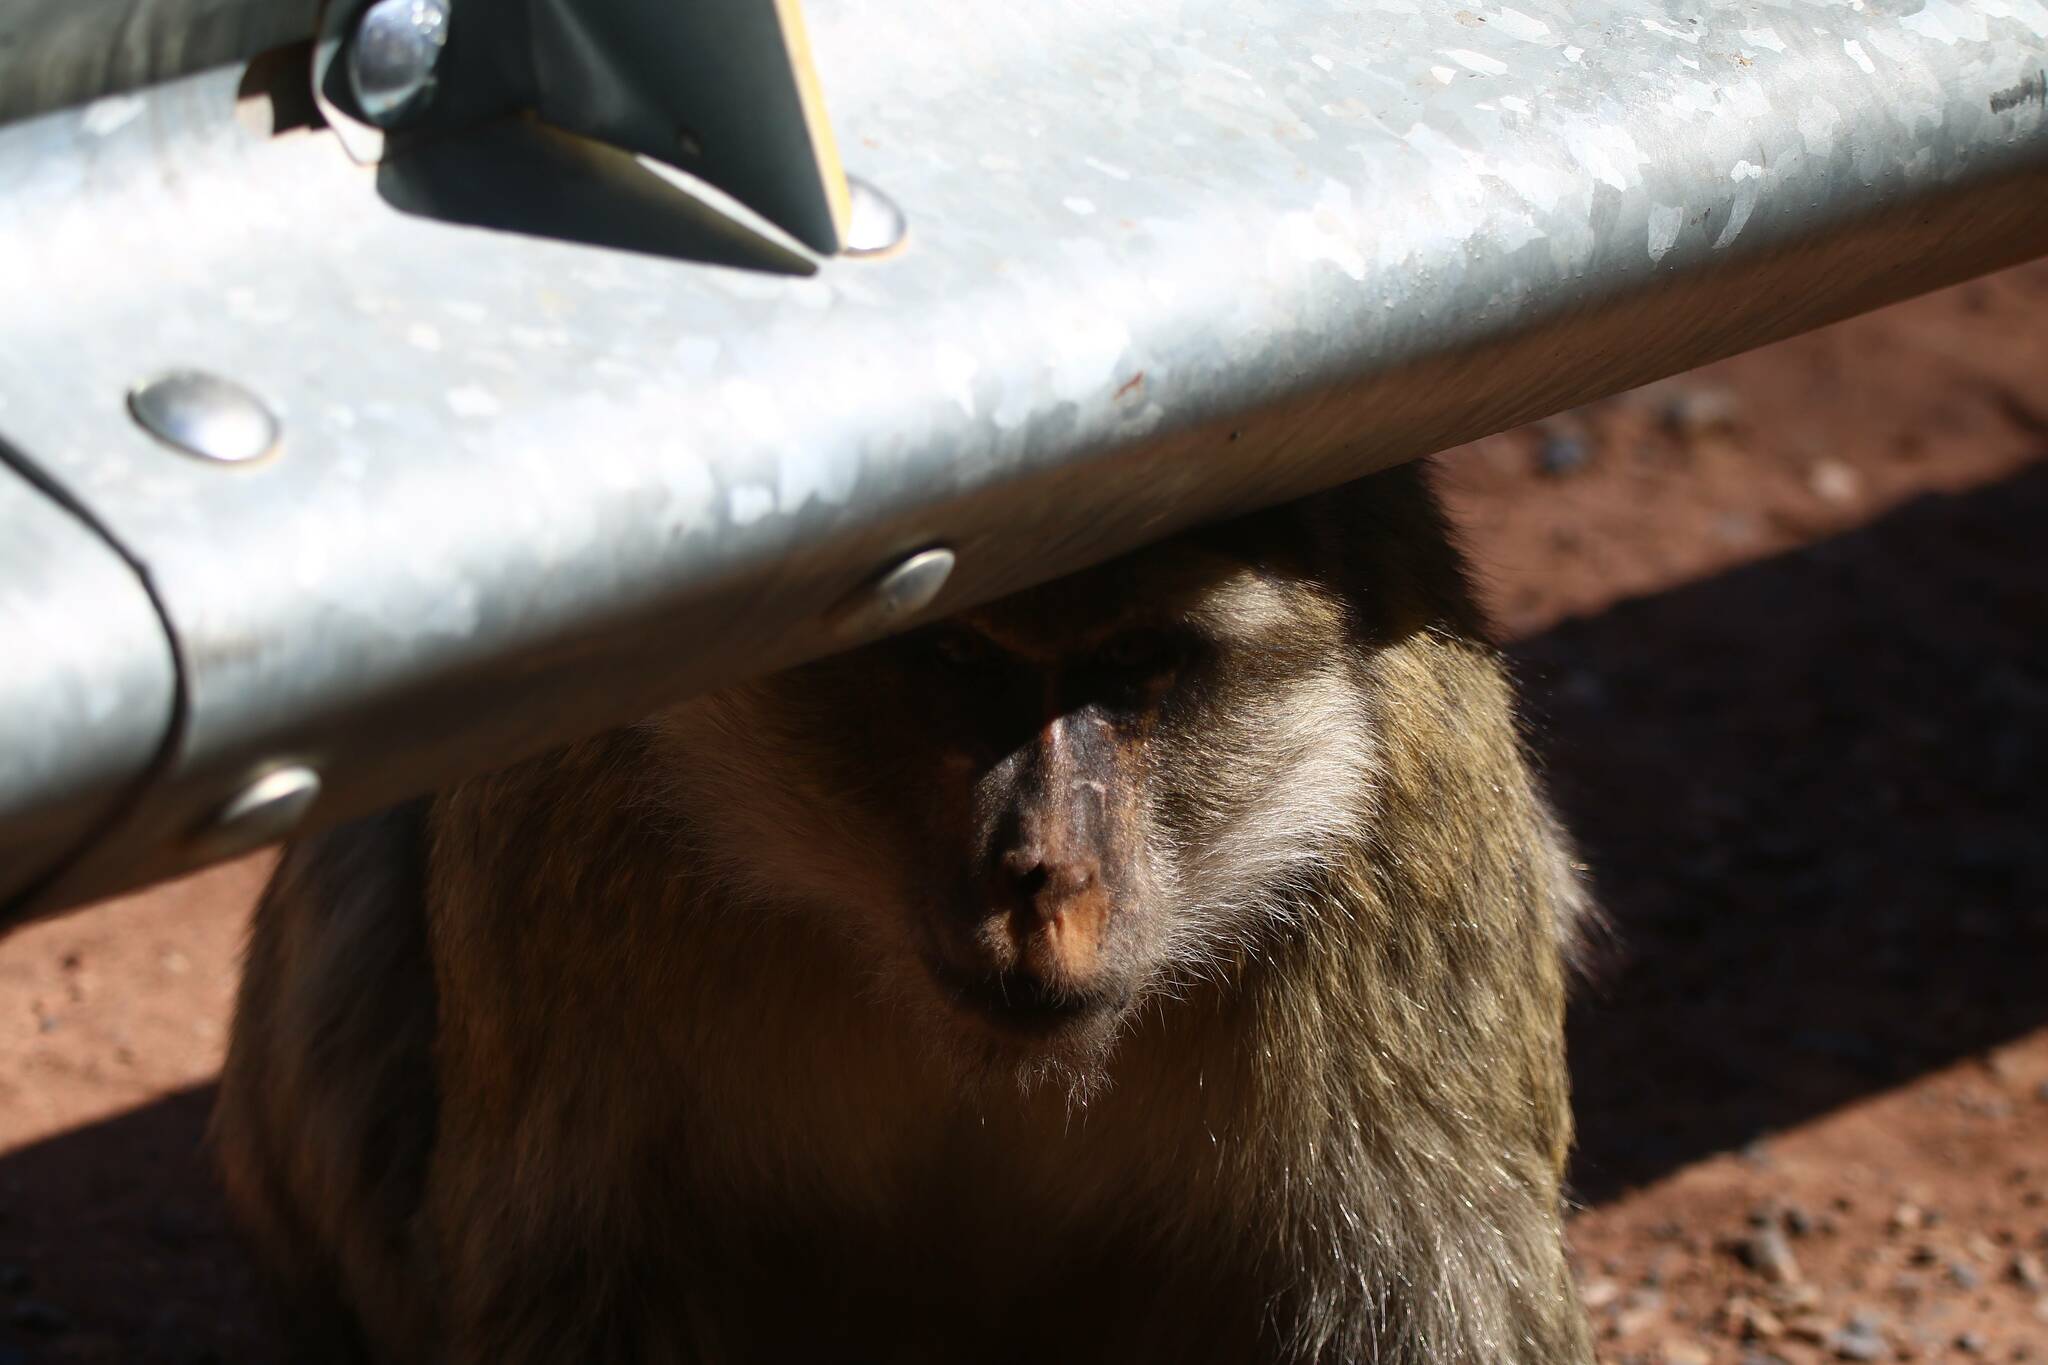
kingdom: Animalia
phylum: Chordata
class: Mammalia
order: Primates
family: Cercopithecidae
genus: Macaca
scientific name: Macaca sylvanus
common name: Barbary macaque
